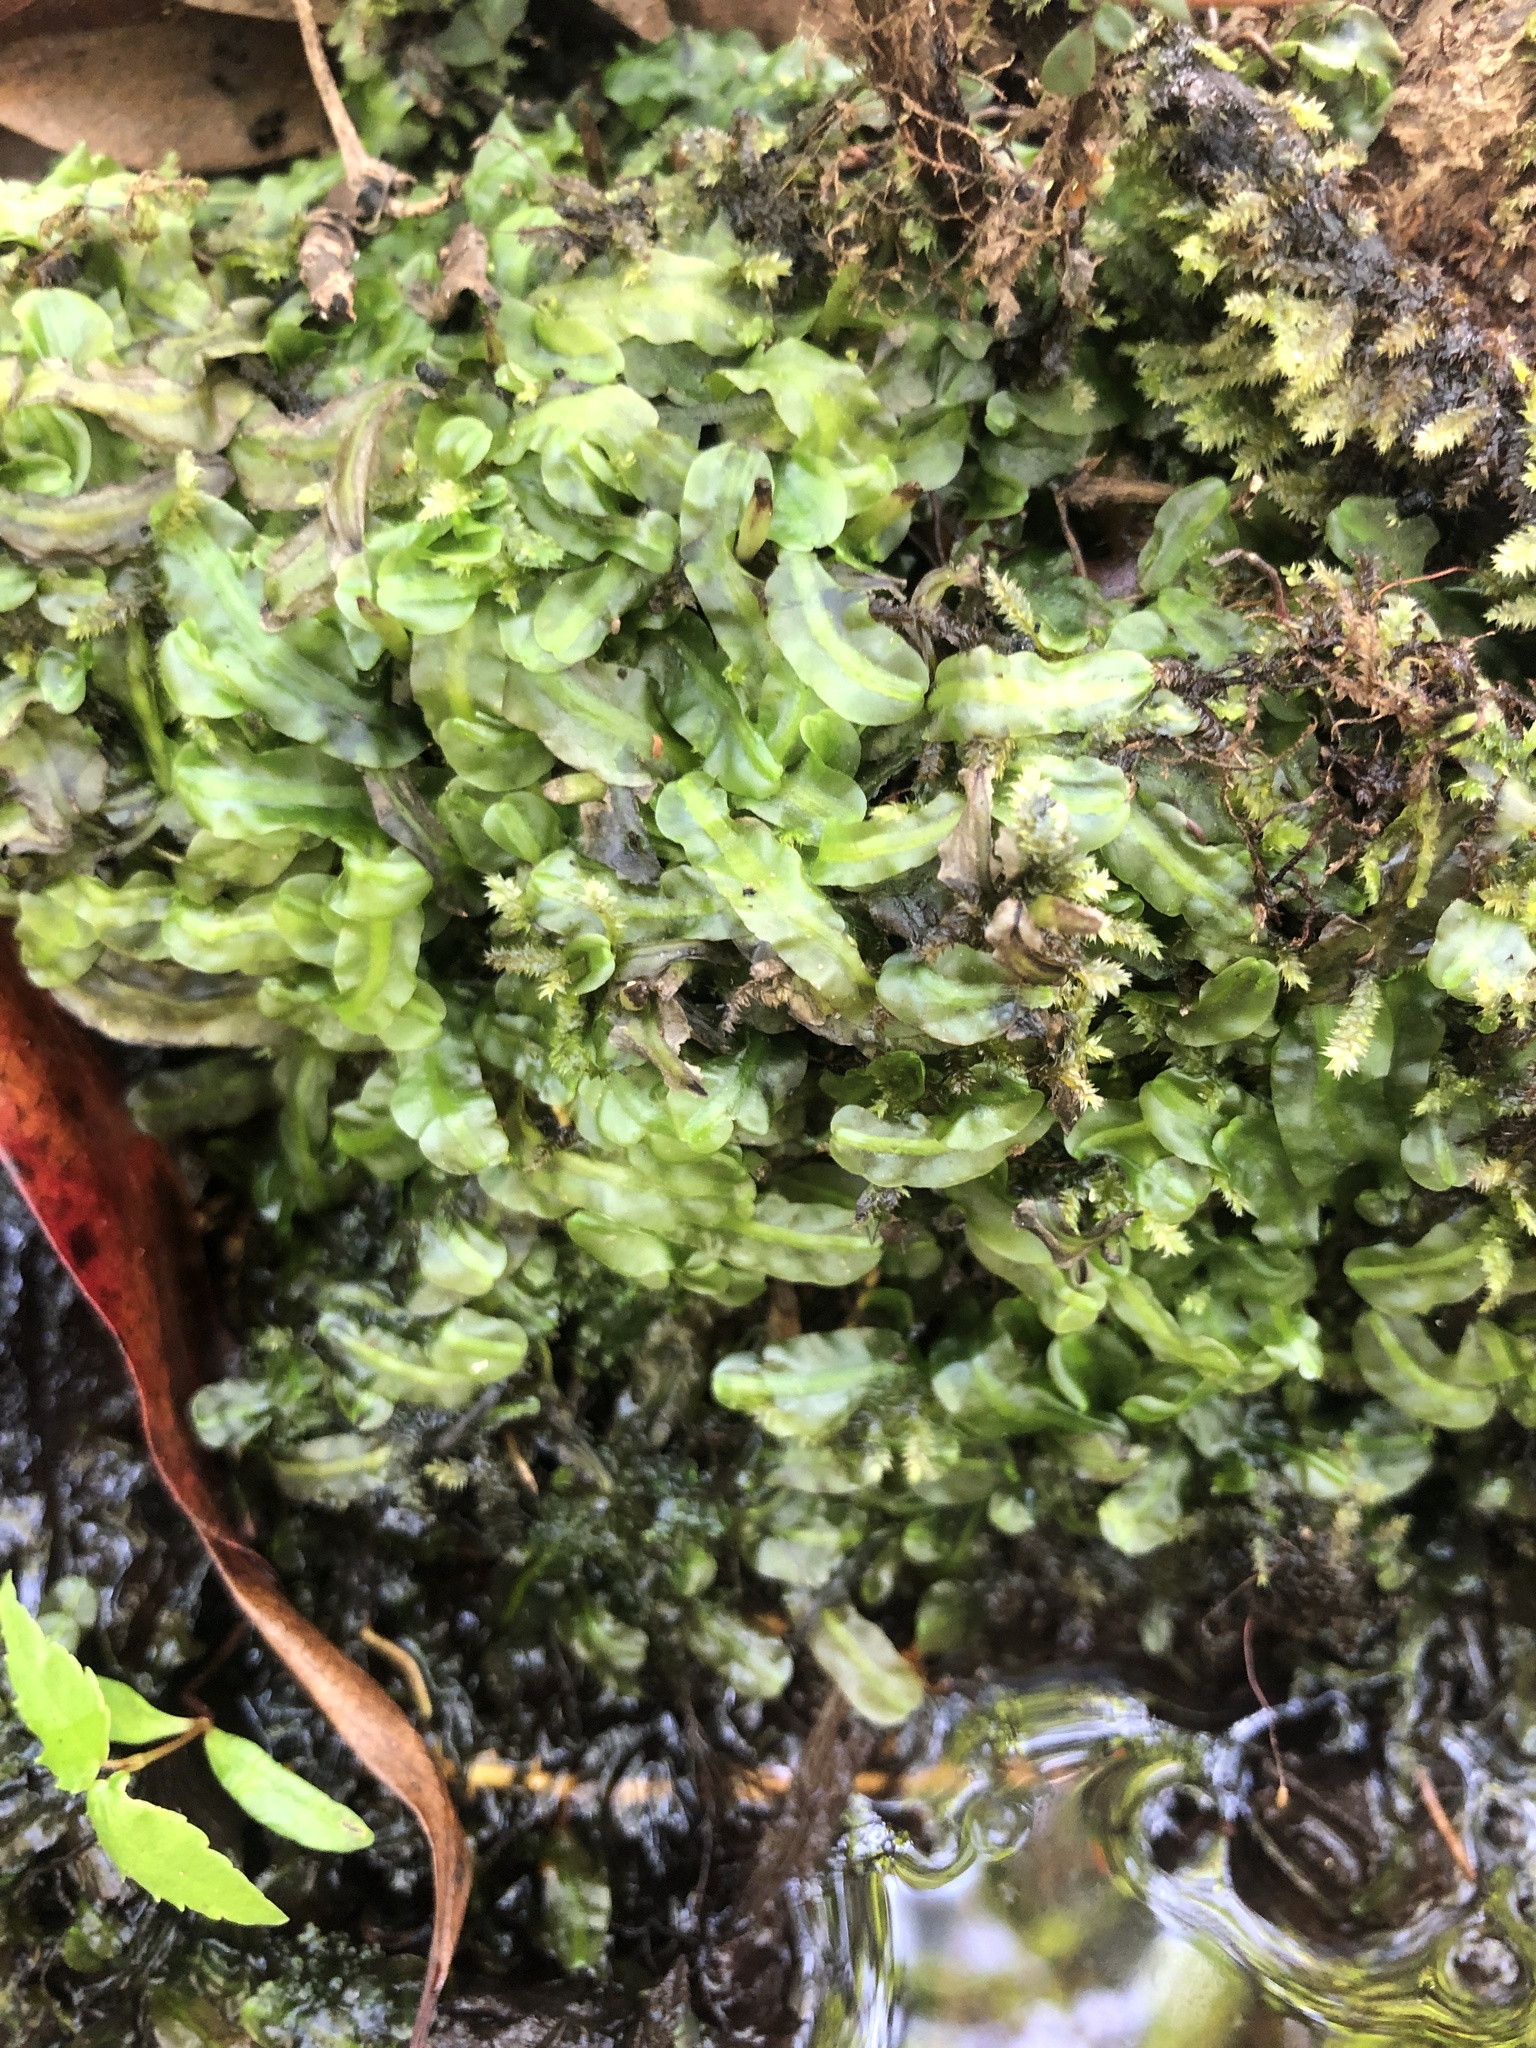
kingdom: Plantae
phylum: Marchantiophyta
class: Jungermanniopsida
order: Pallaviciniales
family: Pallaviciniaceae
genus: Pallavicinia
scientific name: Pallavicinia lyellii
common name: Veilwort
